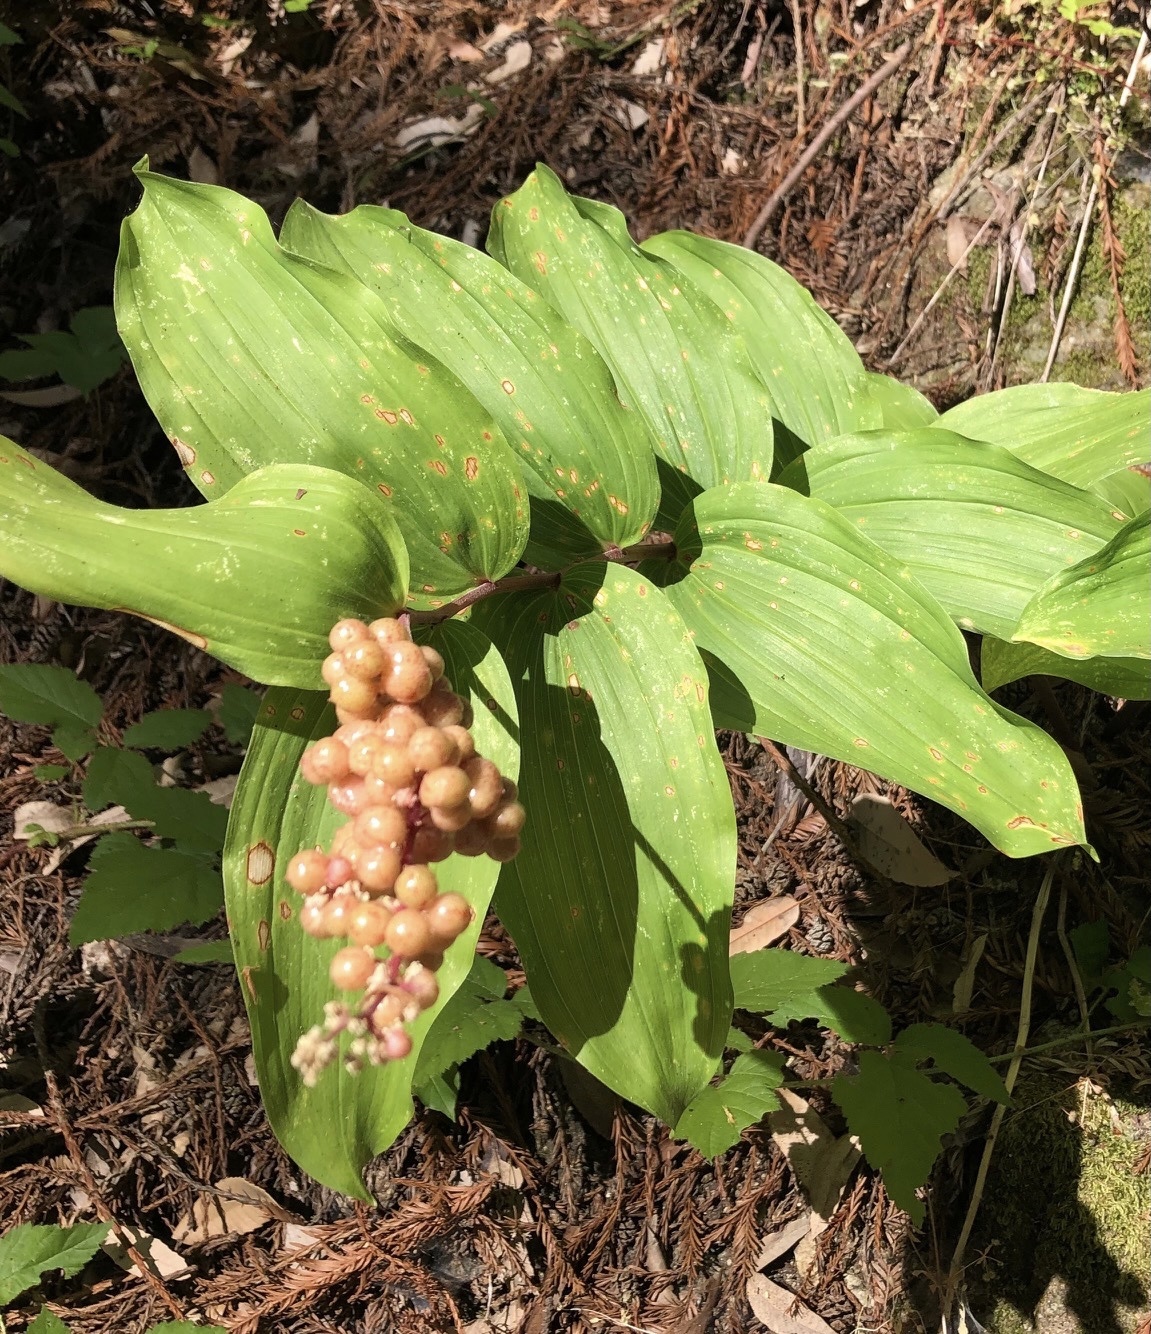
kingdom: Plantae
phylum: Tracheophyta
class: Liliopsida
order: Asparagales
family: Asparagaceae
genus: Maianthemum
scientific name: Maianthemum racemosum
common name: False spikenard
